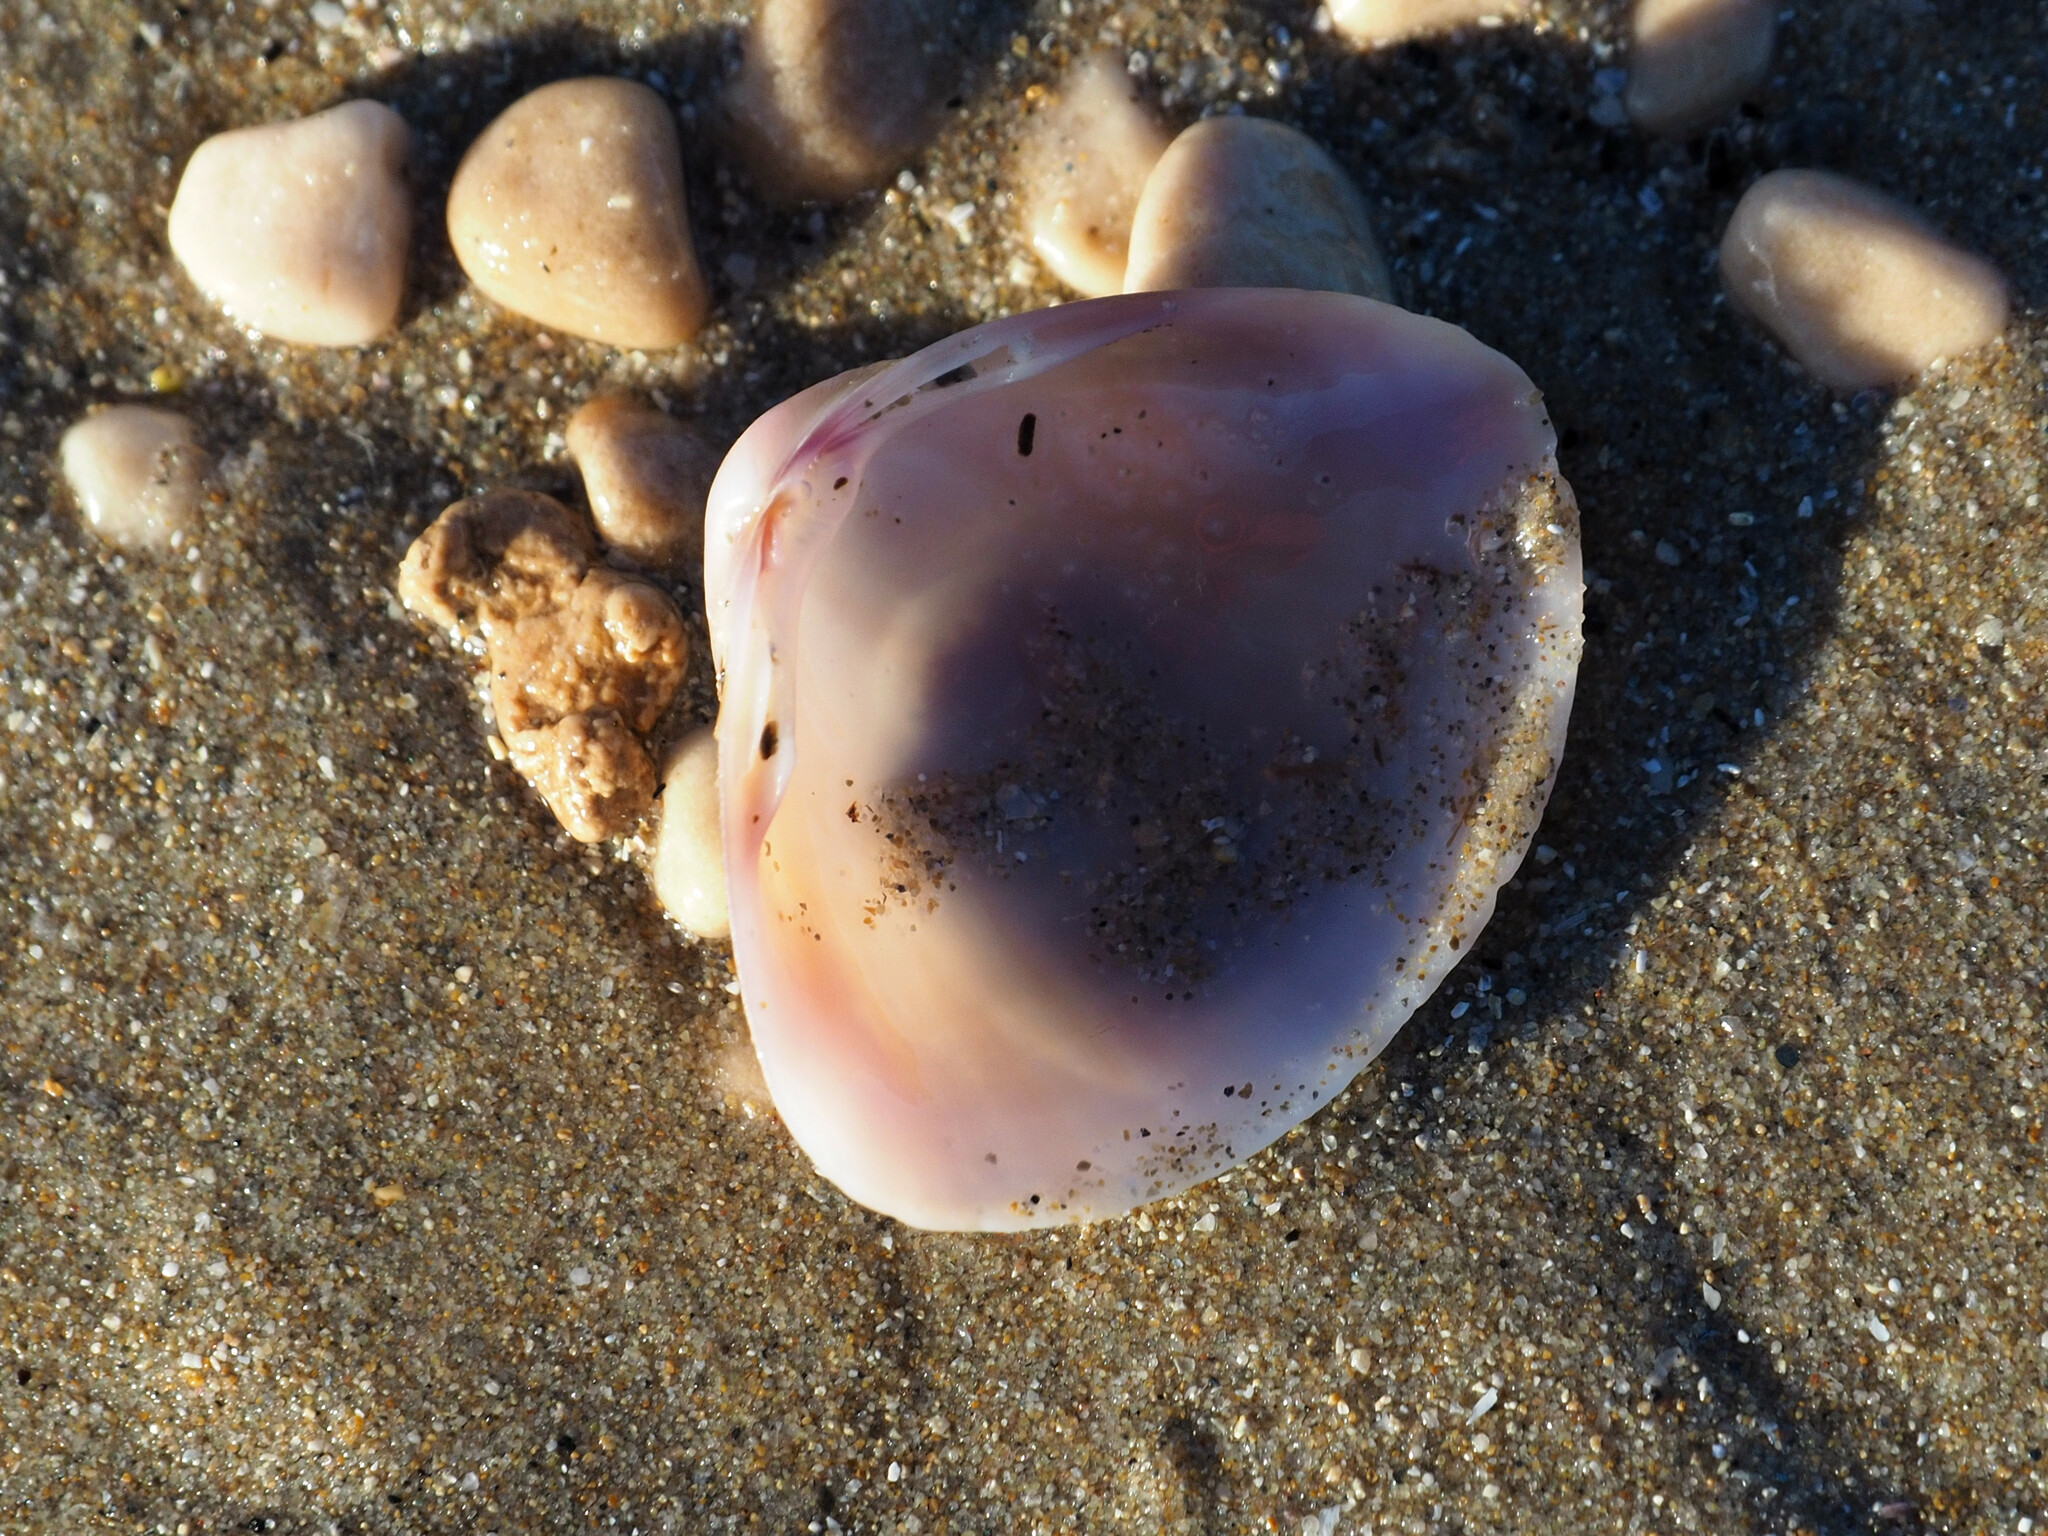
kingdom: Animalia
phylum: Mollusca
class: Bivalvia
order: Venerida
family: Mactridae
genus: Mactra
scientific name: Mactra stultorum
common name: Rayed trough shell
